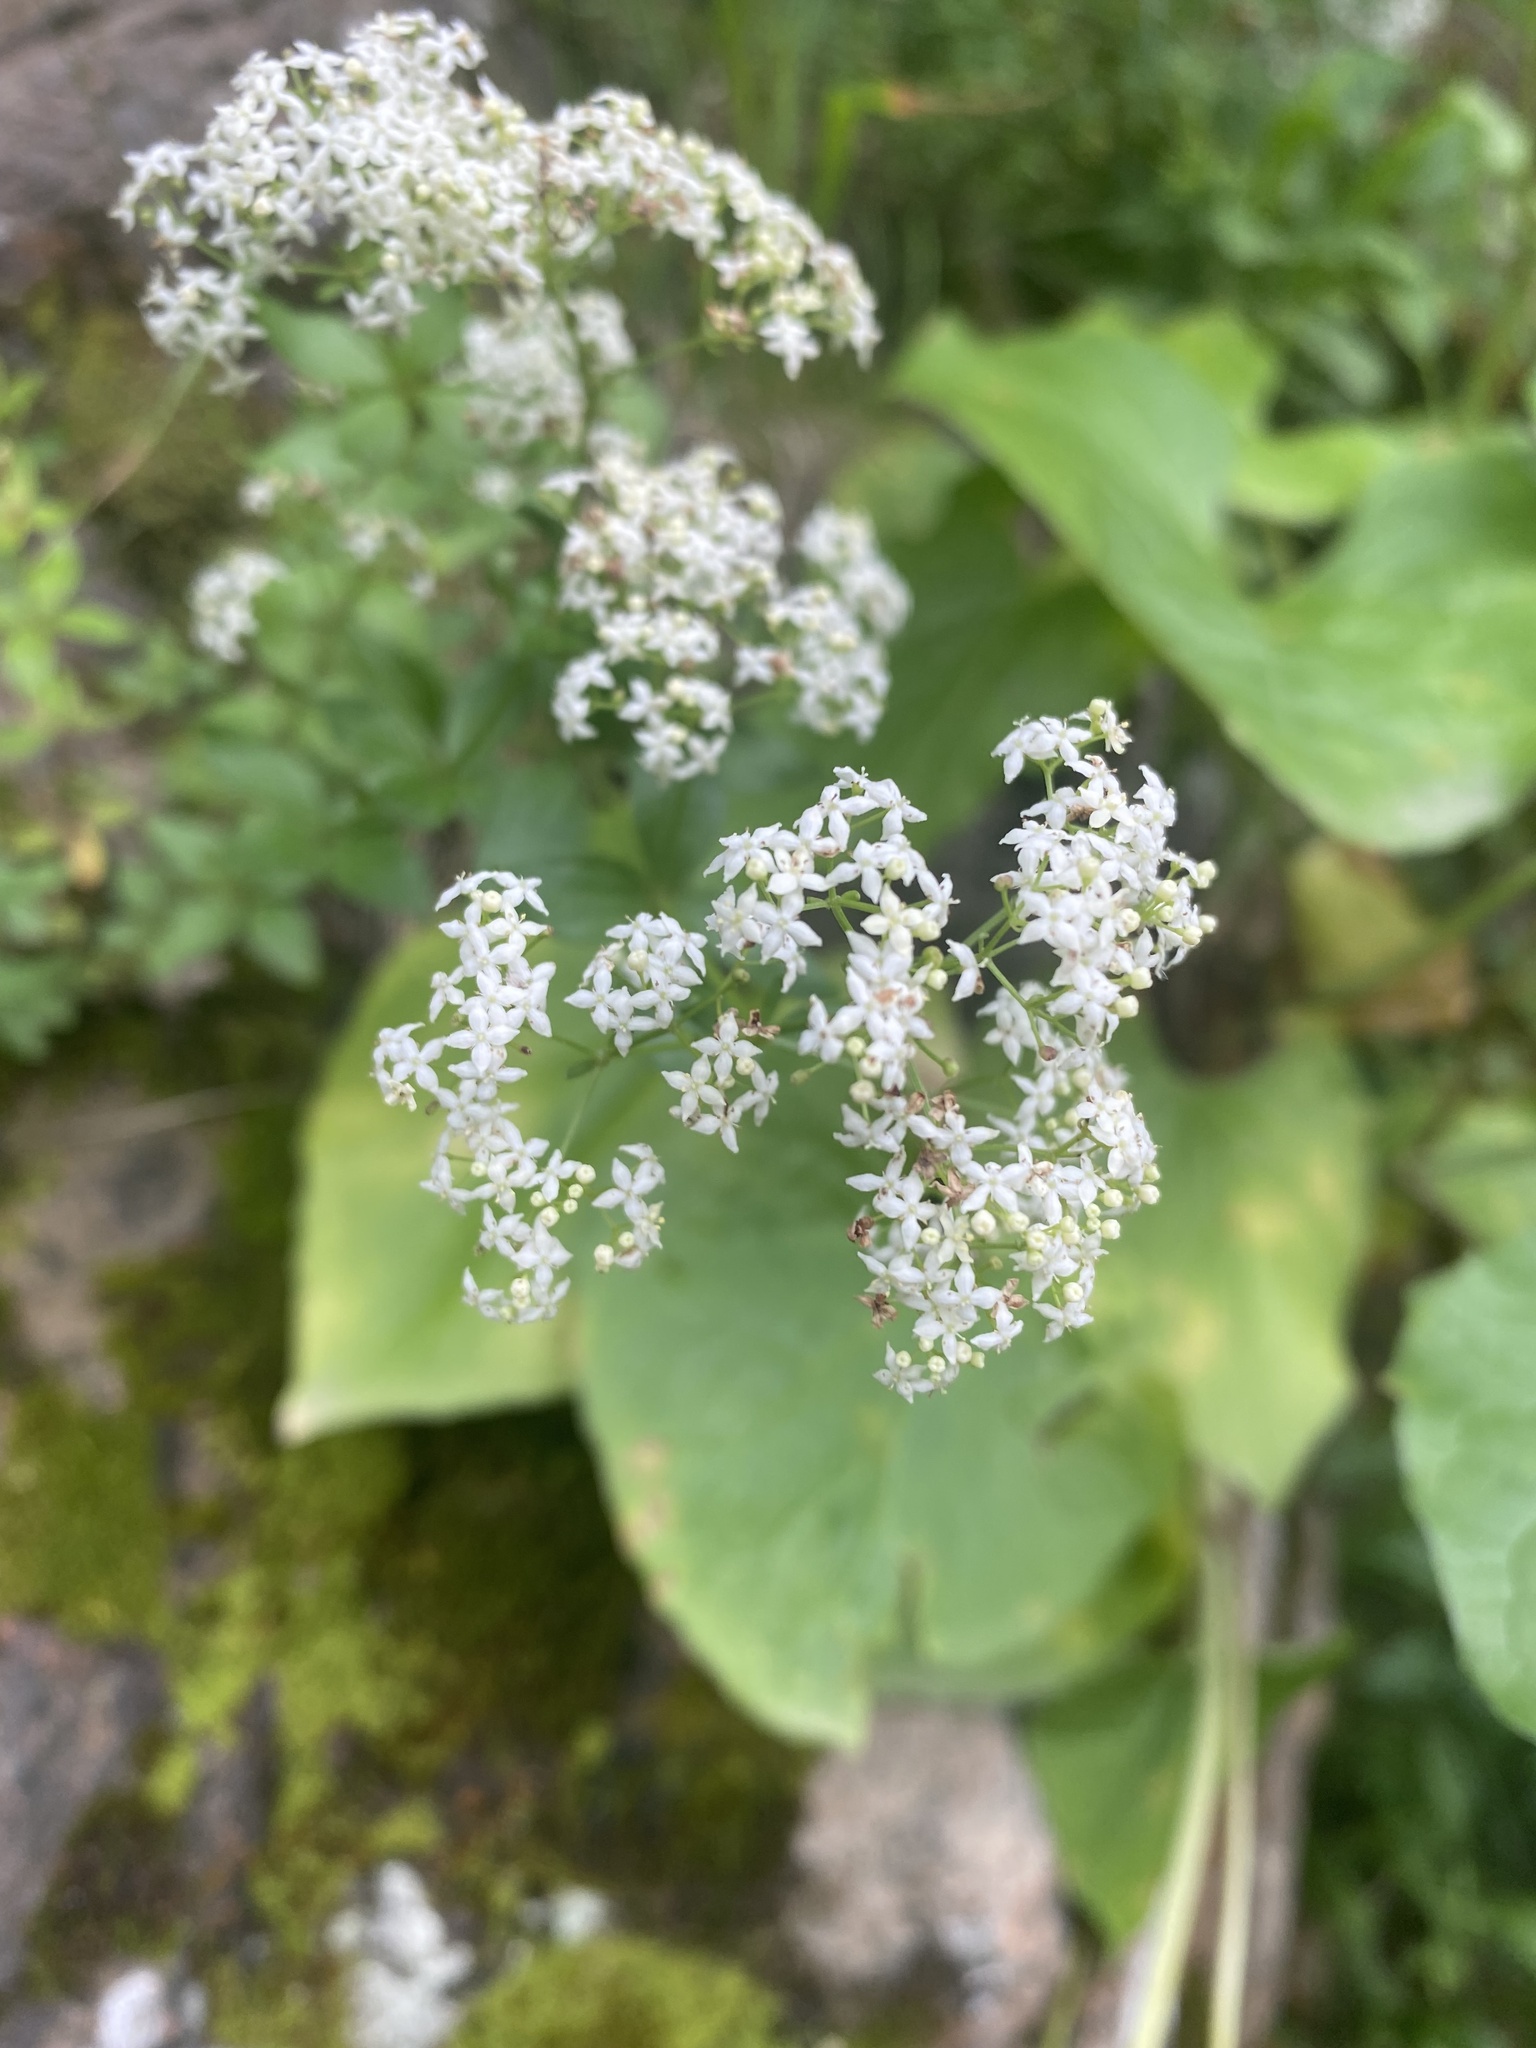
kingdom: Plantae
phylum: Tracheophyta
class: Magnoliopsida
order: Gentianales
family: Rubiaceae
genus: Galium
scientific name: Galium valantioides
